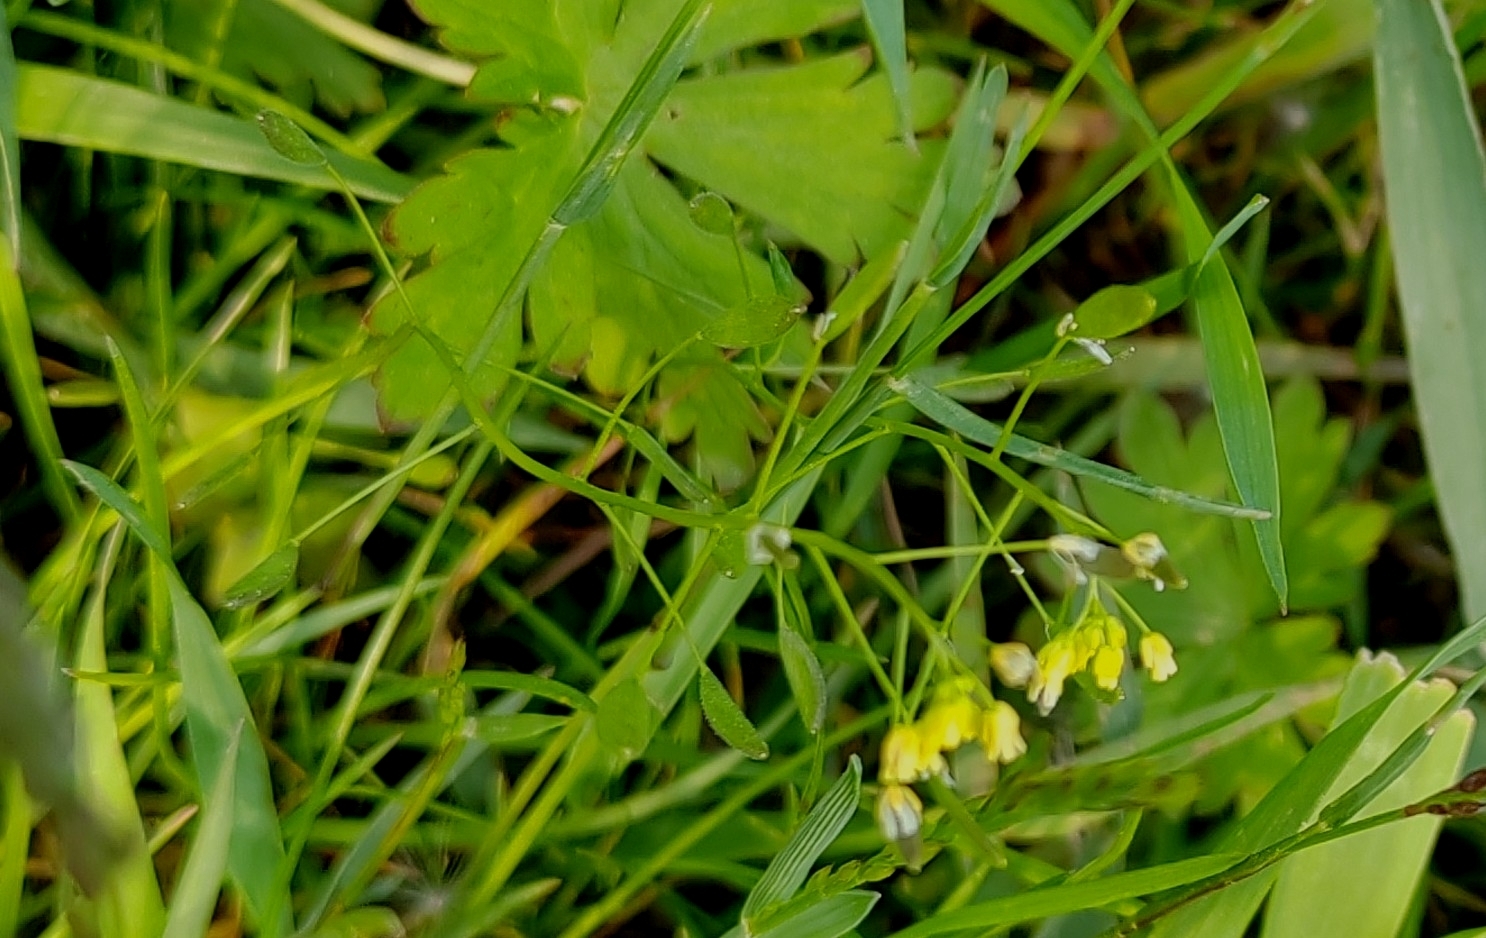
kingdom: Plantae
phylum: Tracheophyta
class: Magnoliopsida
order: Brassicales
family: Brassicaceae
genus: Draba
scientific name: Draba nemorosa
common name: Wood whitlow-grass
